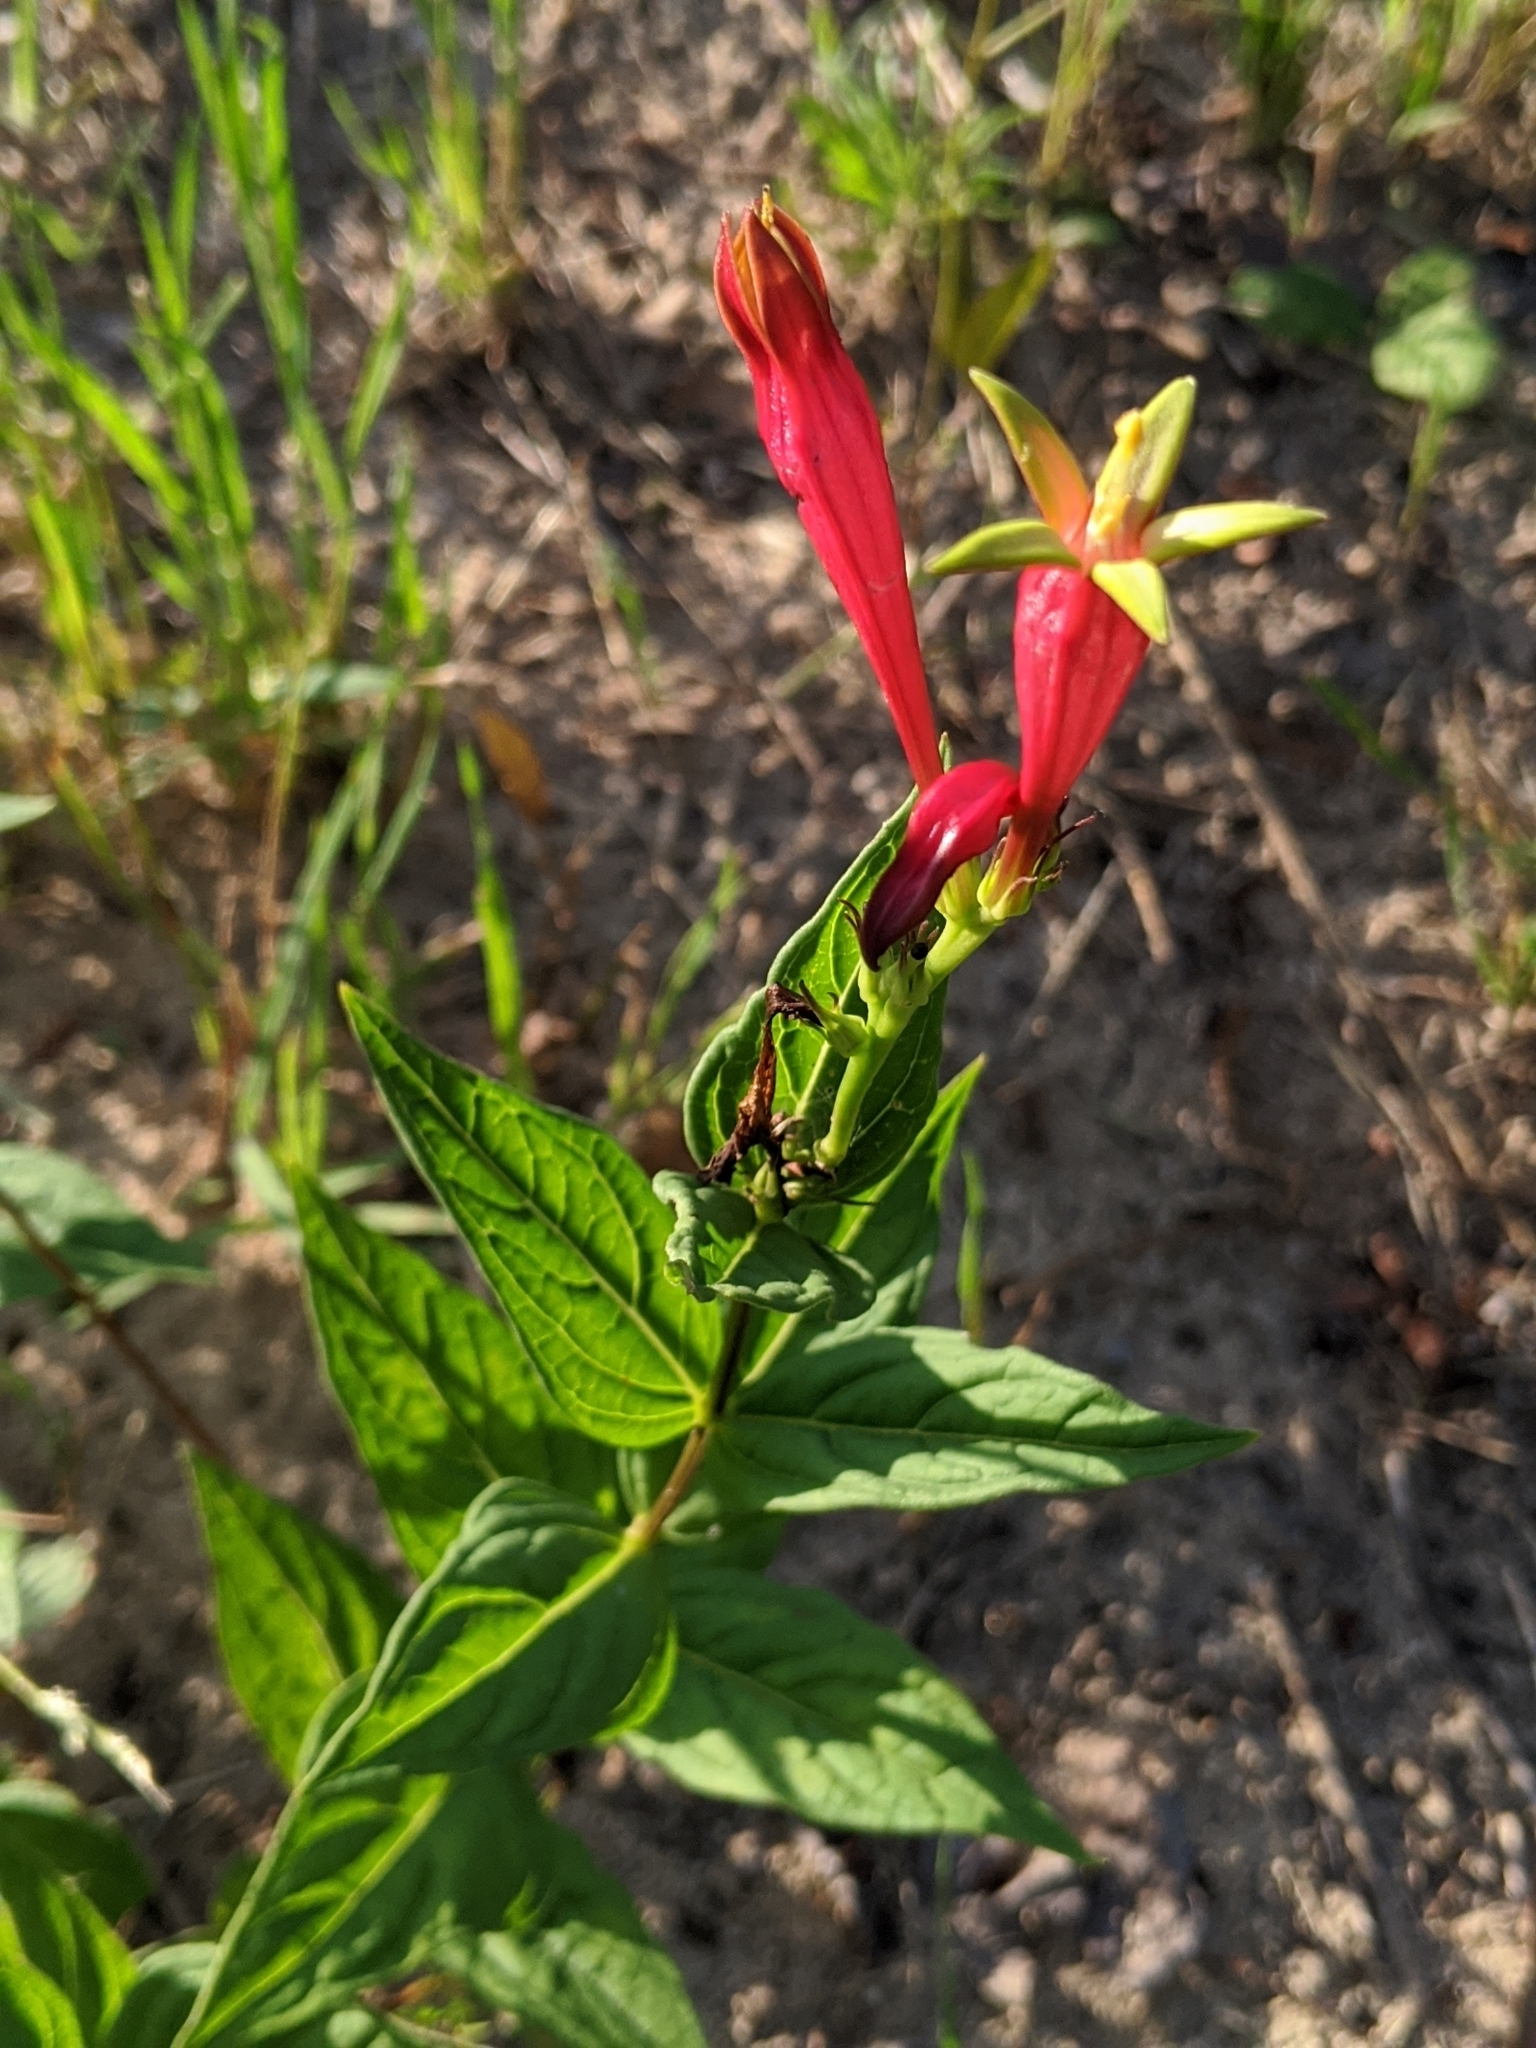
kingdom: Plantae
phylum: Tracheophyta
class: Magnoliopsida
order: Gentianales
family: Loganiaceae
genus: Spigelia
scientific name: Spigelia marilandica
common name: Indian-pink
